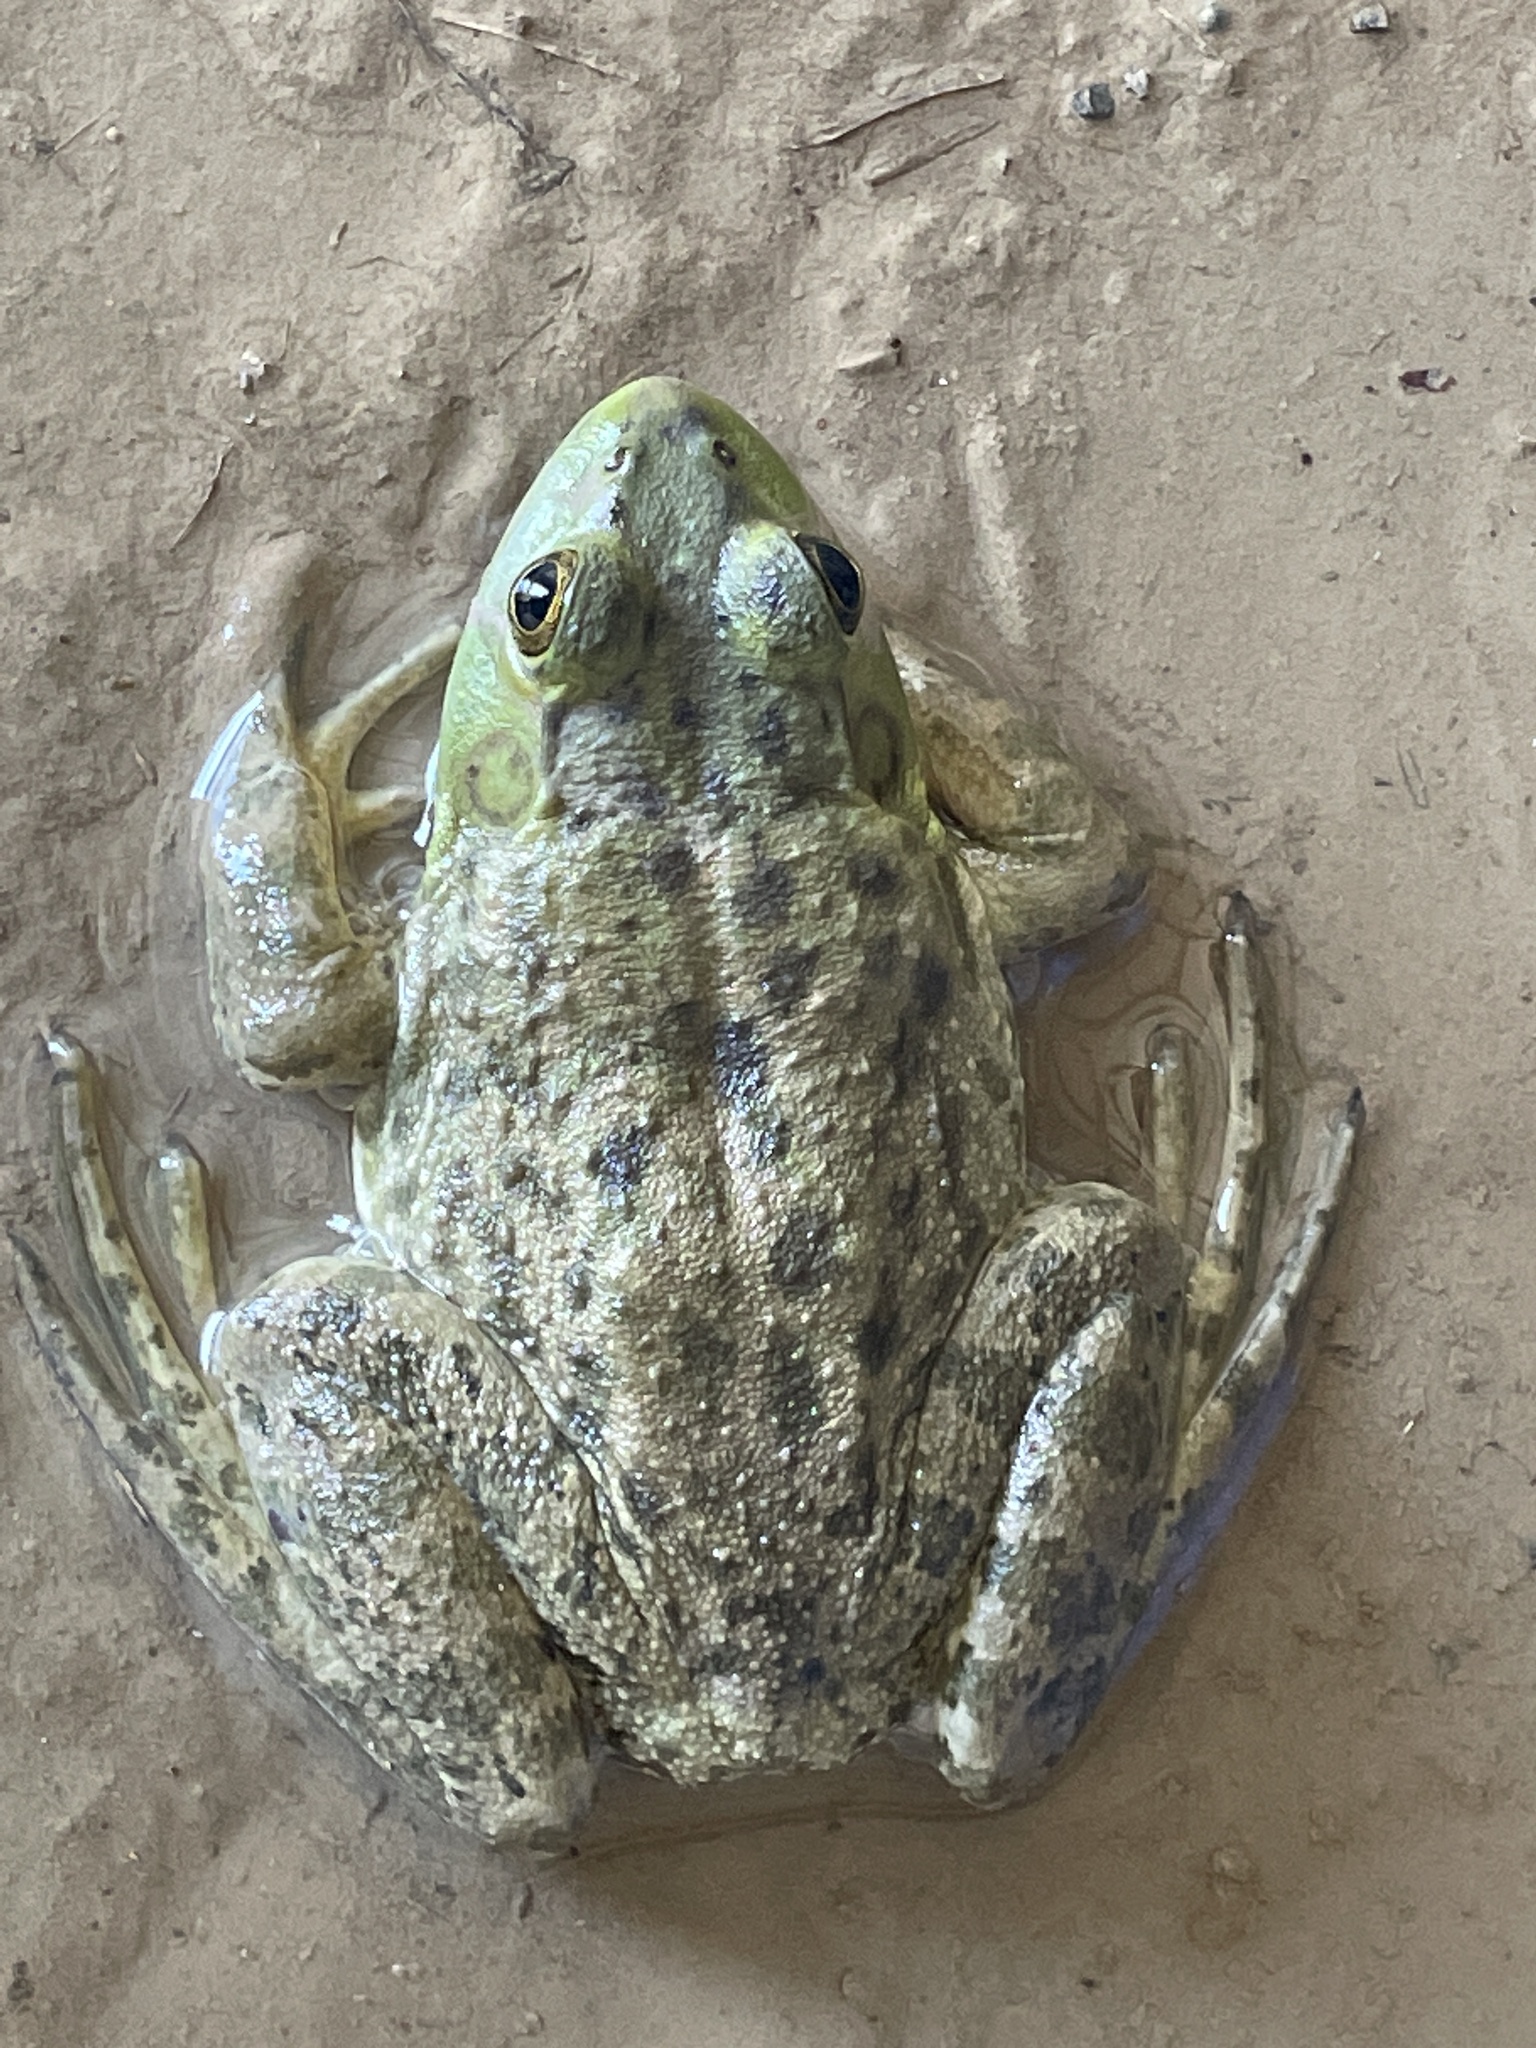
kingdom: Animalia
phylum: Chordata
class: Amphibia
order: Anura
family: Ranidae
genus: Lithobates
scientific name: Lithobates catesbeianus
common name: American bullfrog
